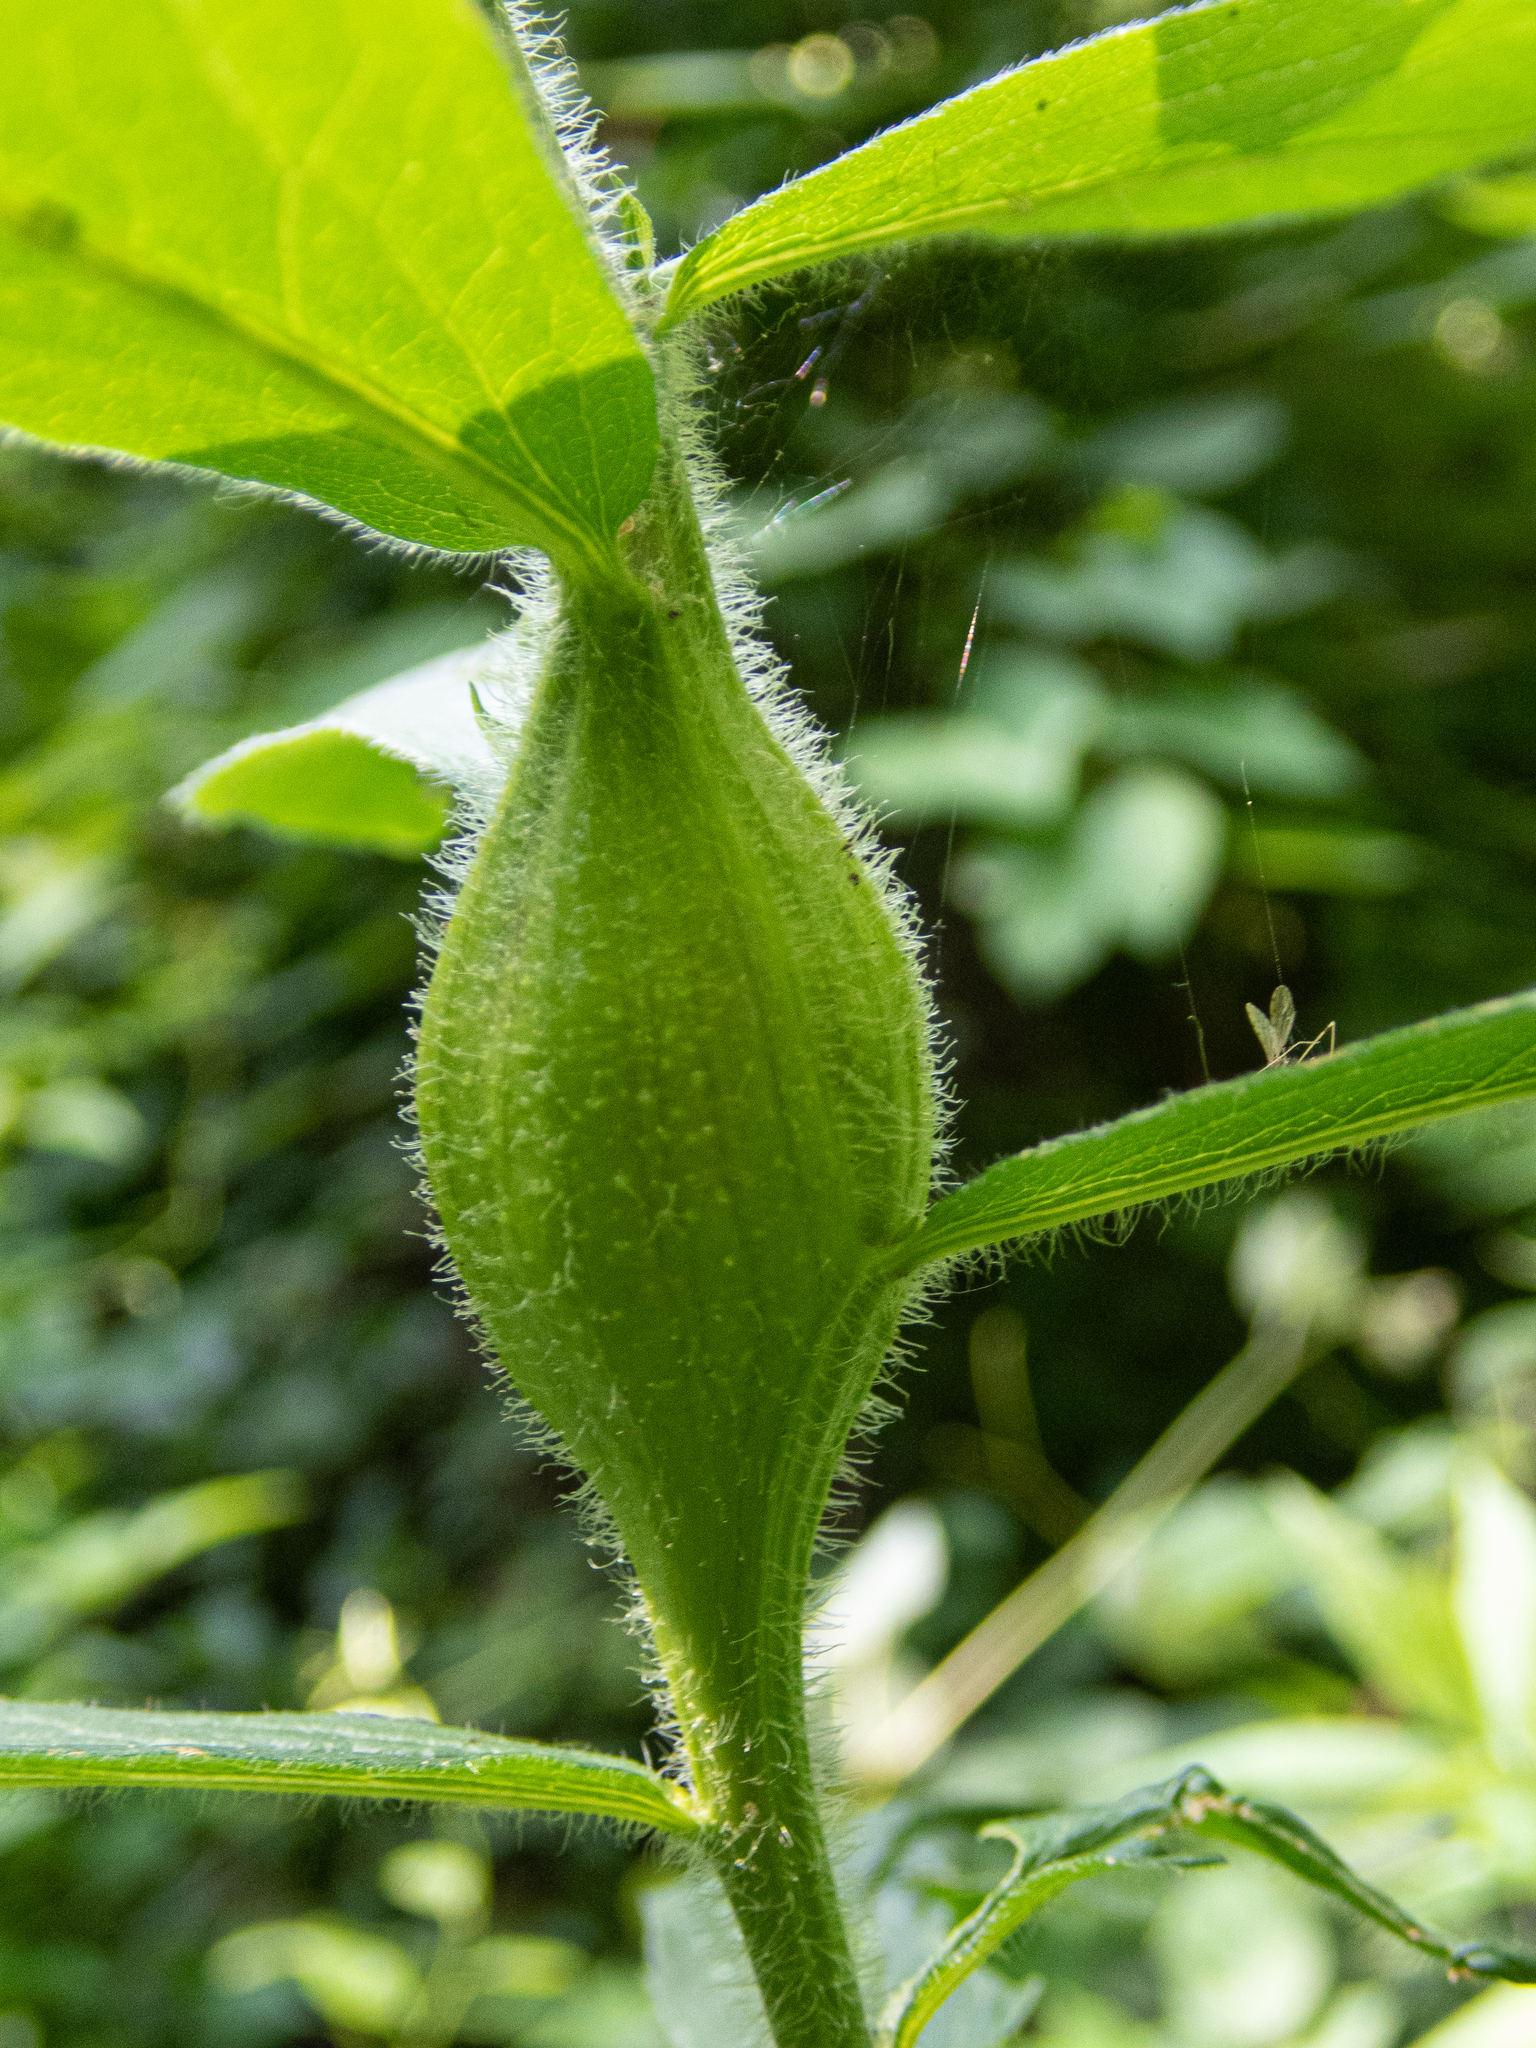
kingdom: Animalia
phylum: Arthropoda
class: Insecta
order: Lepidoptera
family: Gelechiidae
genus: Gnorimoschema
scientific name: Gnorimoschema gallaesolidaginis
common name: Goldenrod elliptical-gall moth
